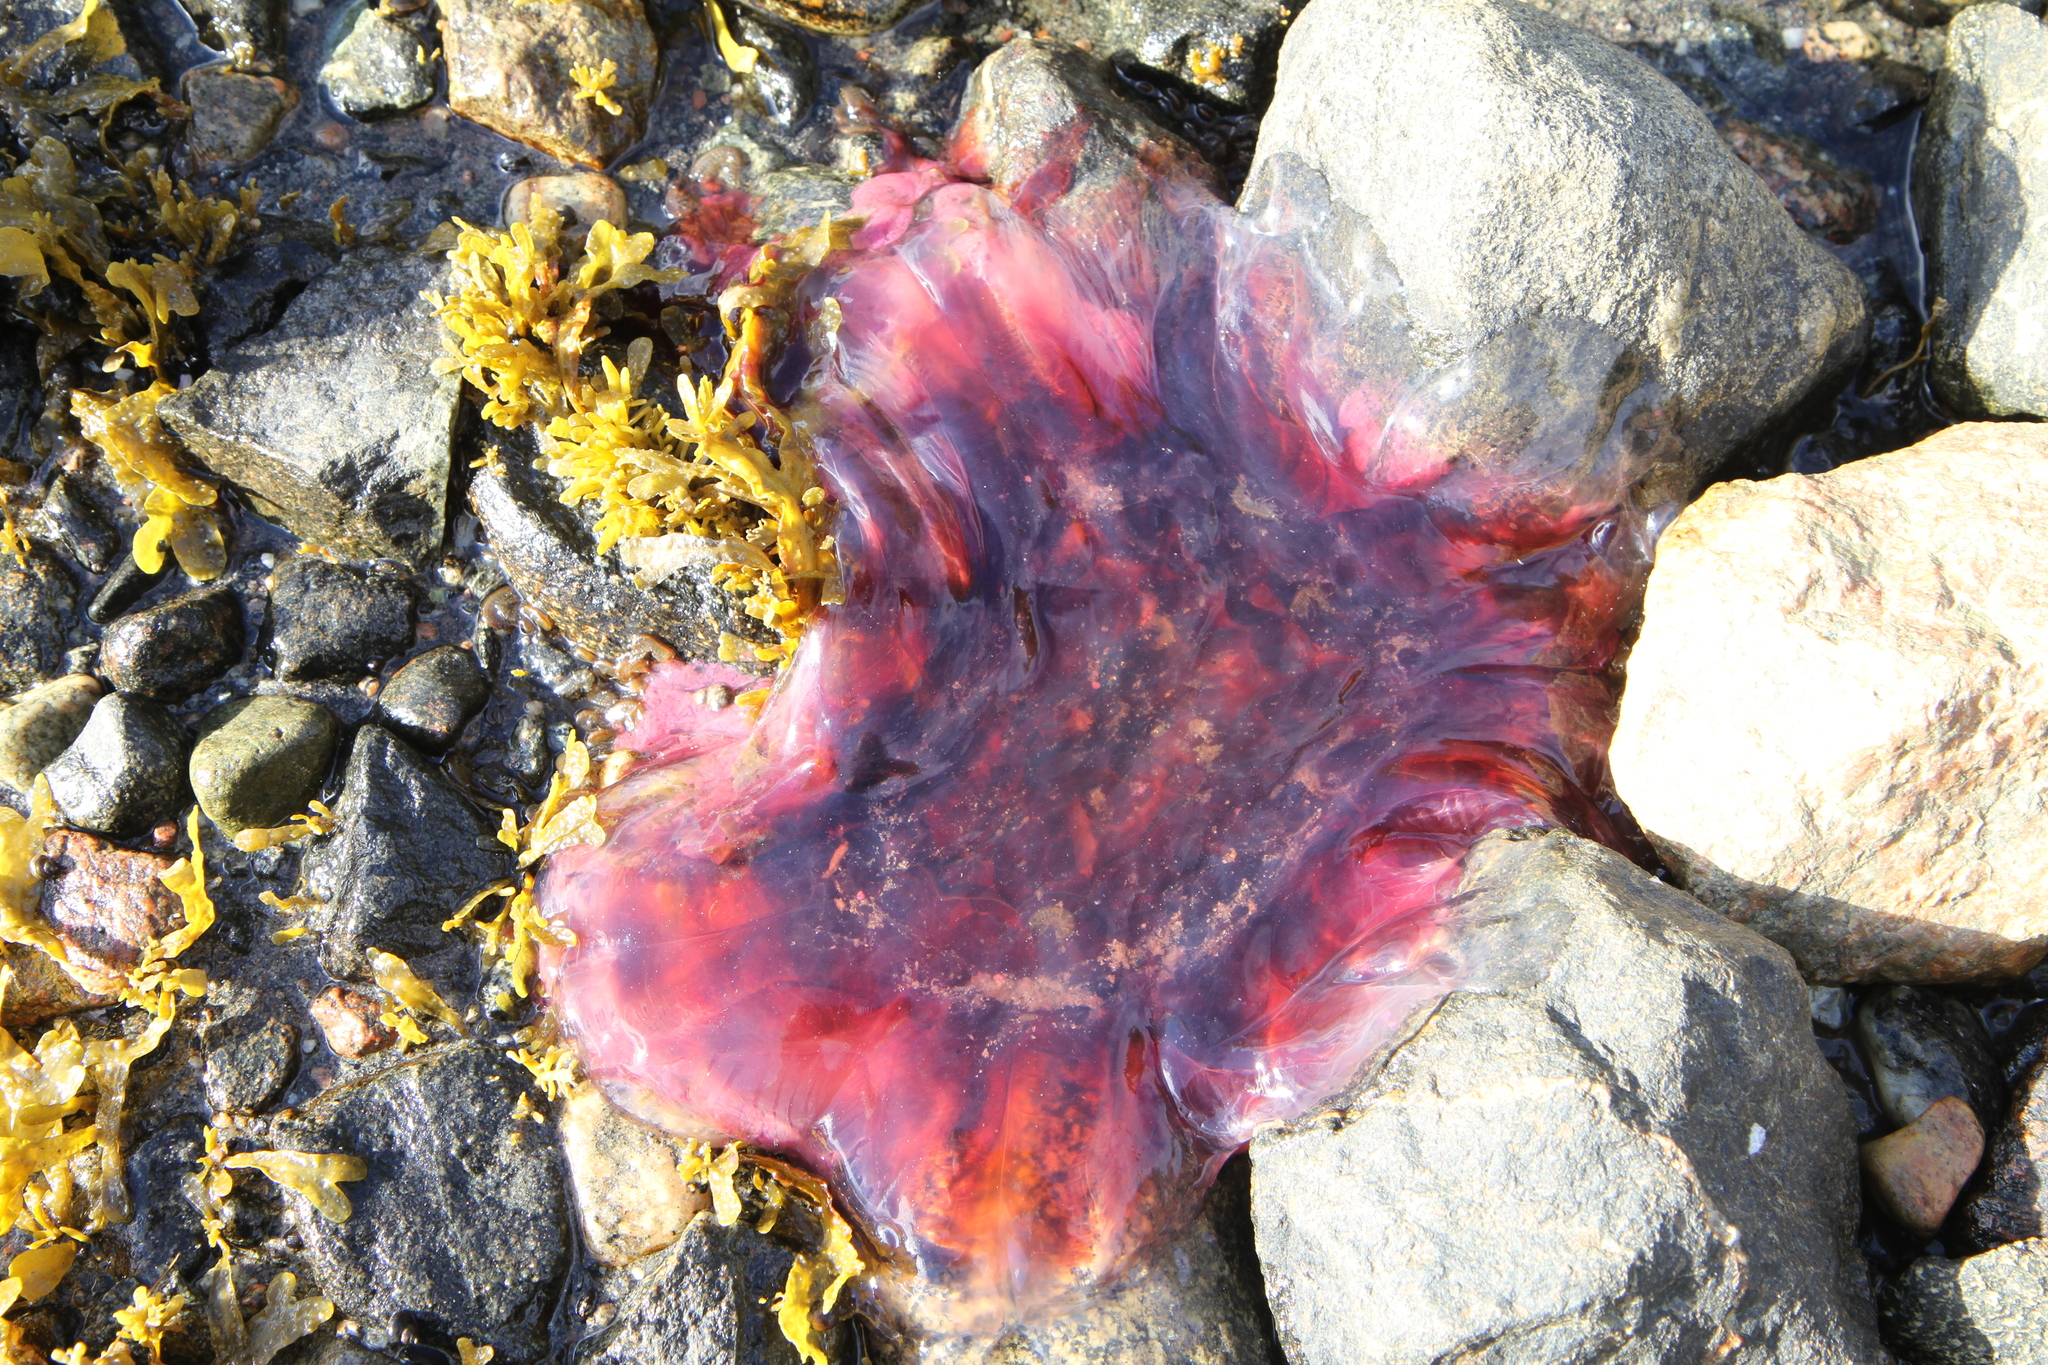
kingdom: Animalia
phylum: Cnidaria
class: Scyphozoa
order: Semaeostomeae
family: Cyaneidae
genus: Cyanea
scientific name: Cyanea
